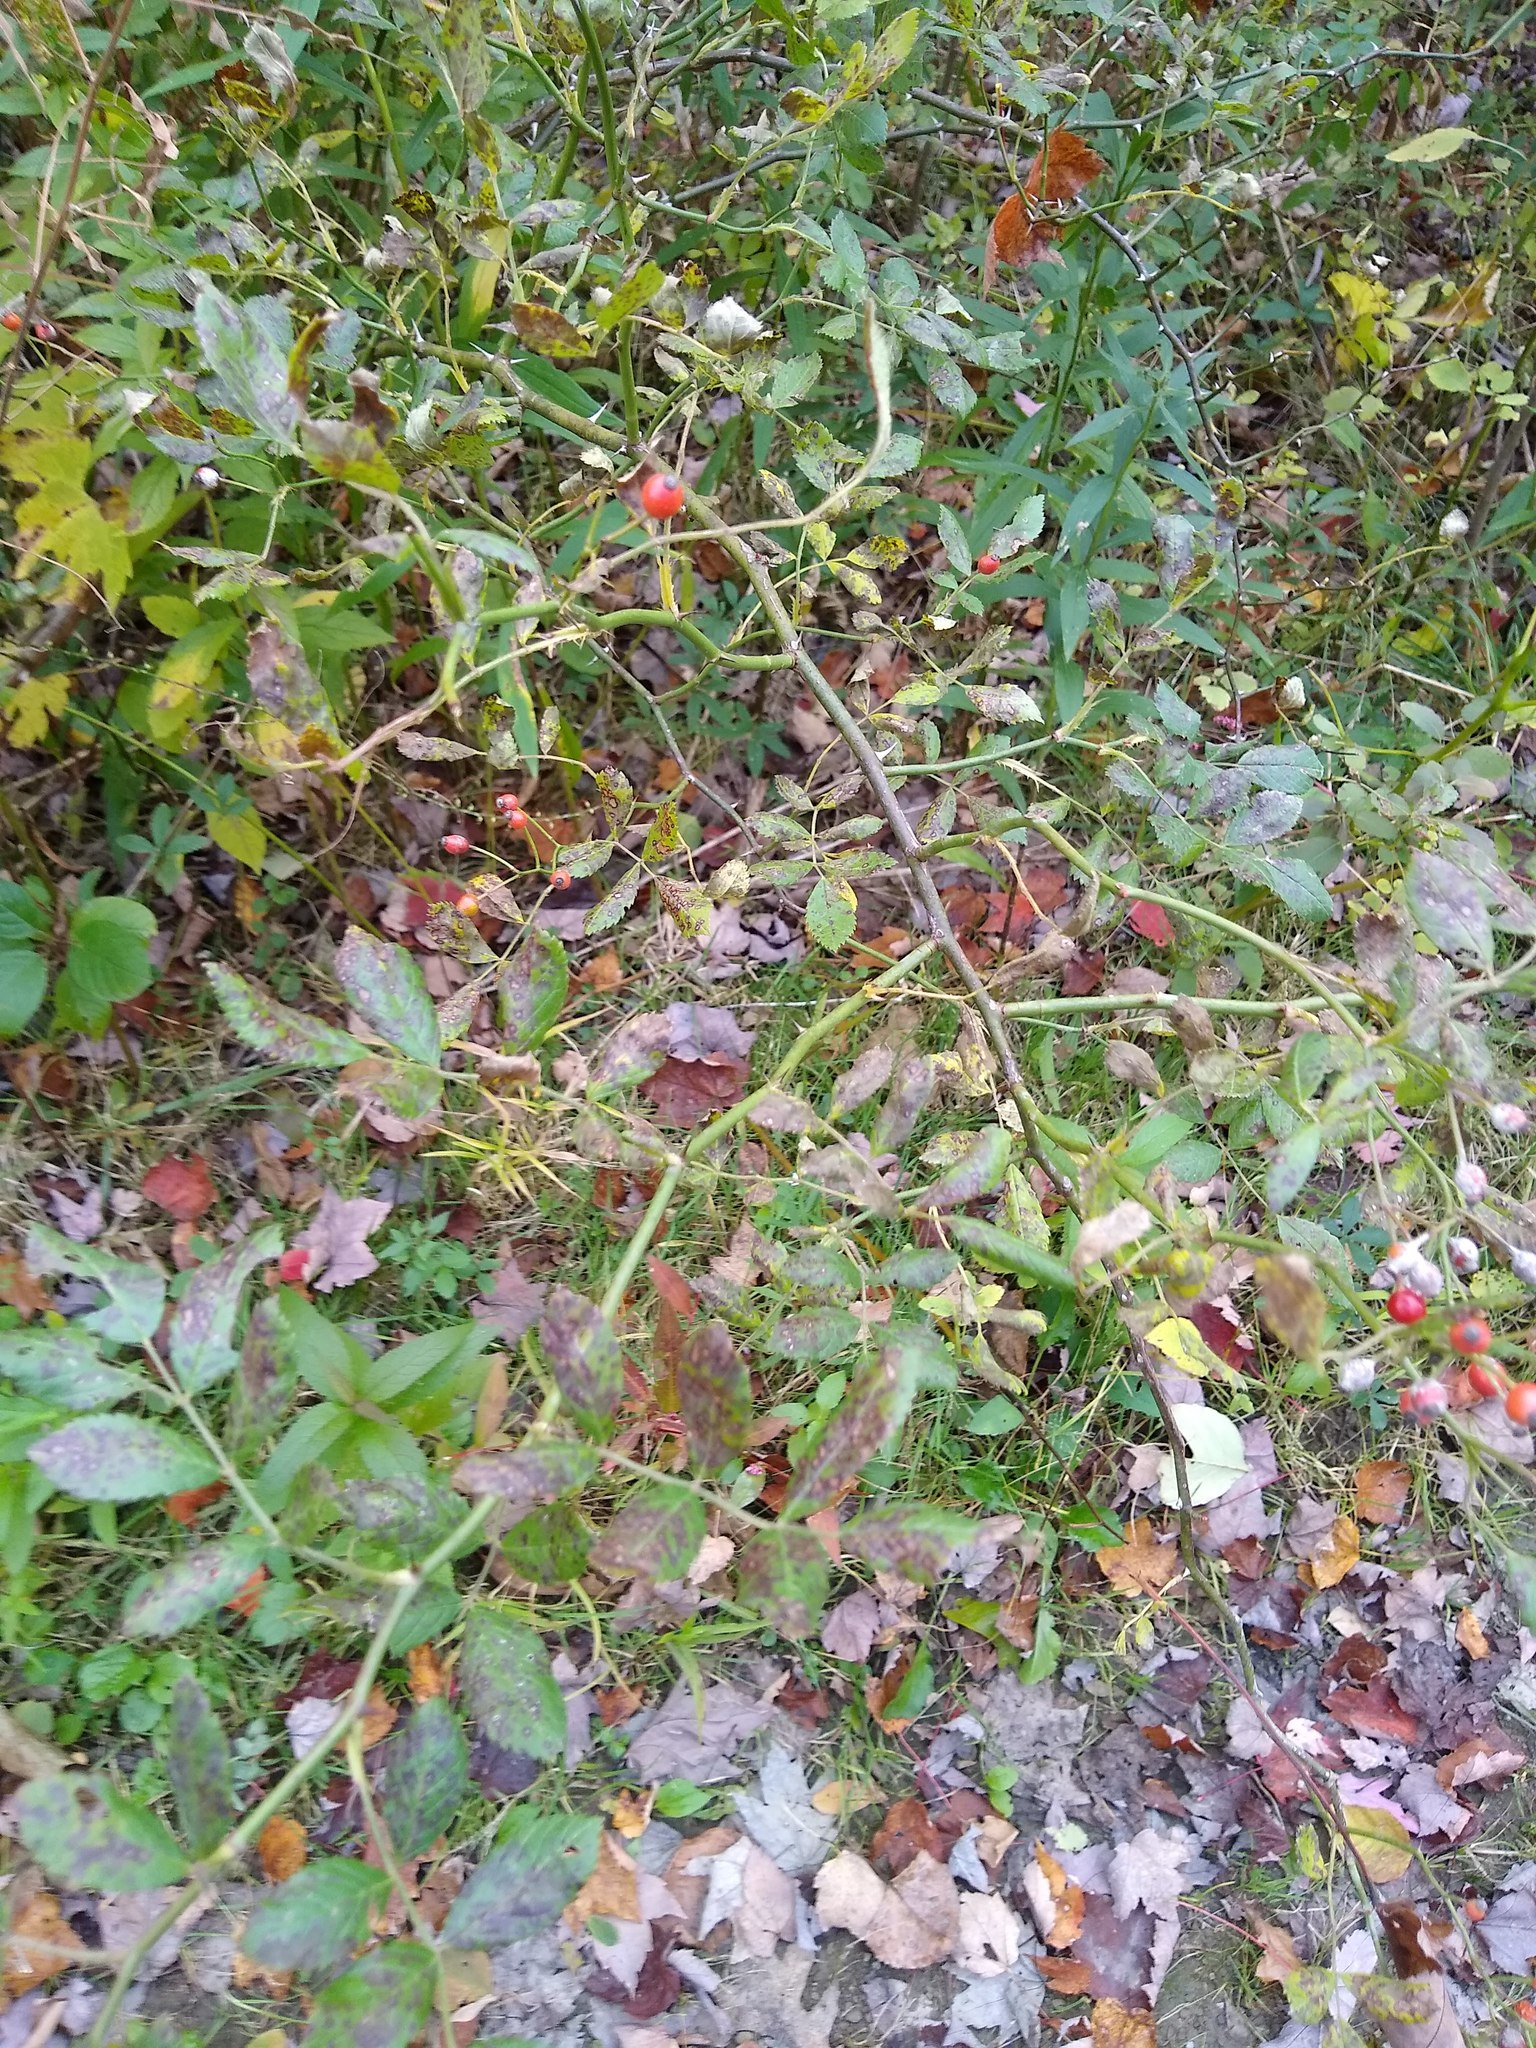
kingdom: Plantae
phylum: Tracheophyta
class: Magnoliopsida
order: Rosales
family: Rosaceae
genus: Rosa
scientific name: Rosa multiflora
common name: Multiflora rose
